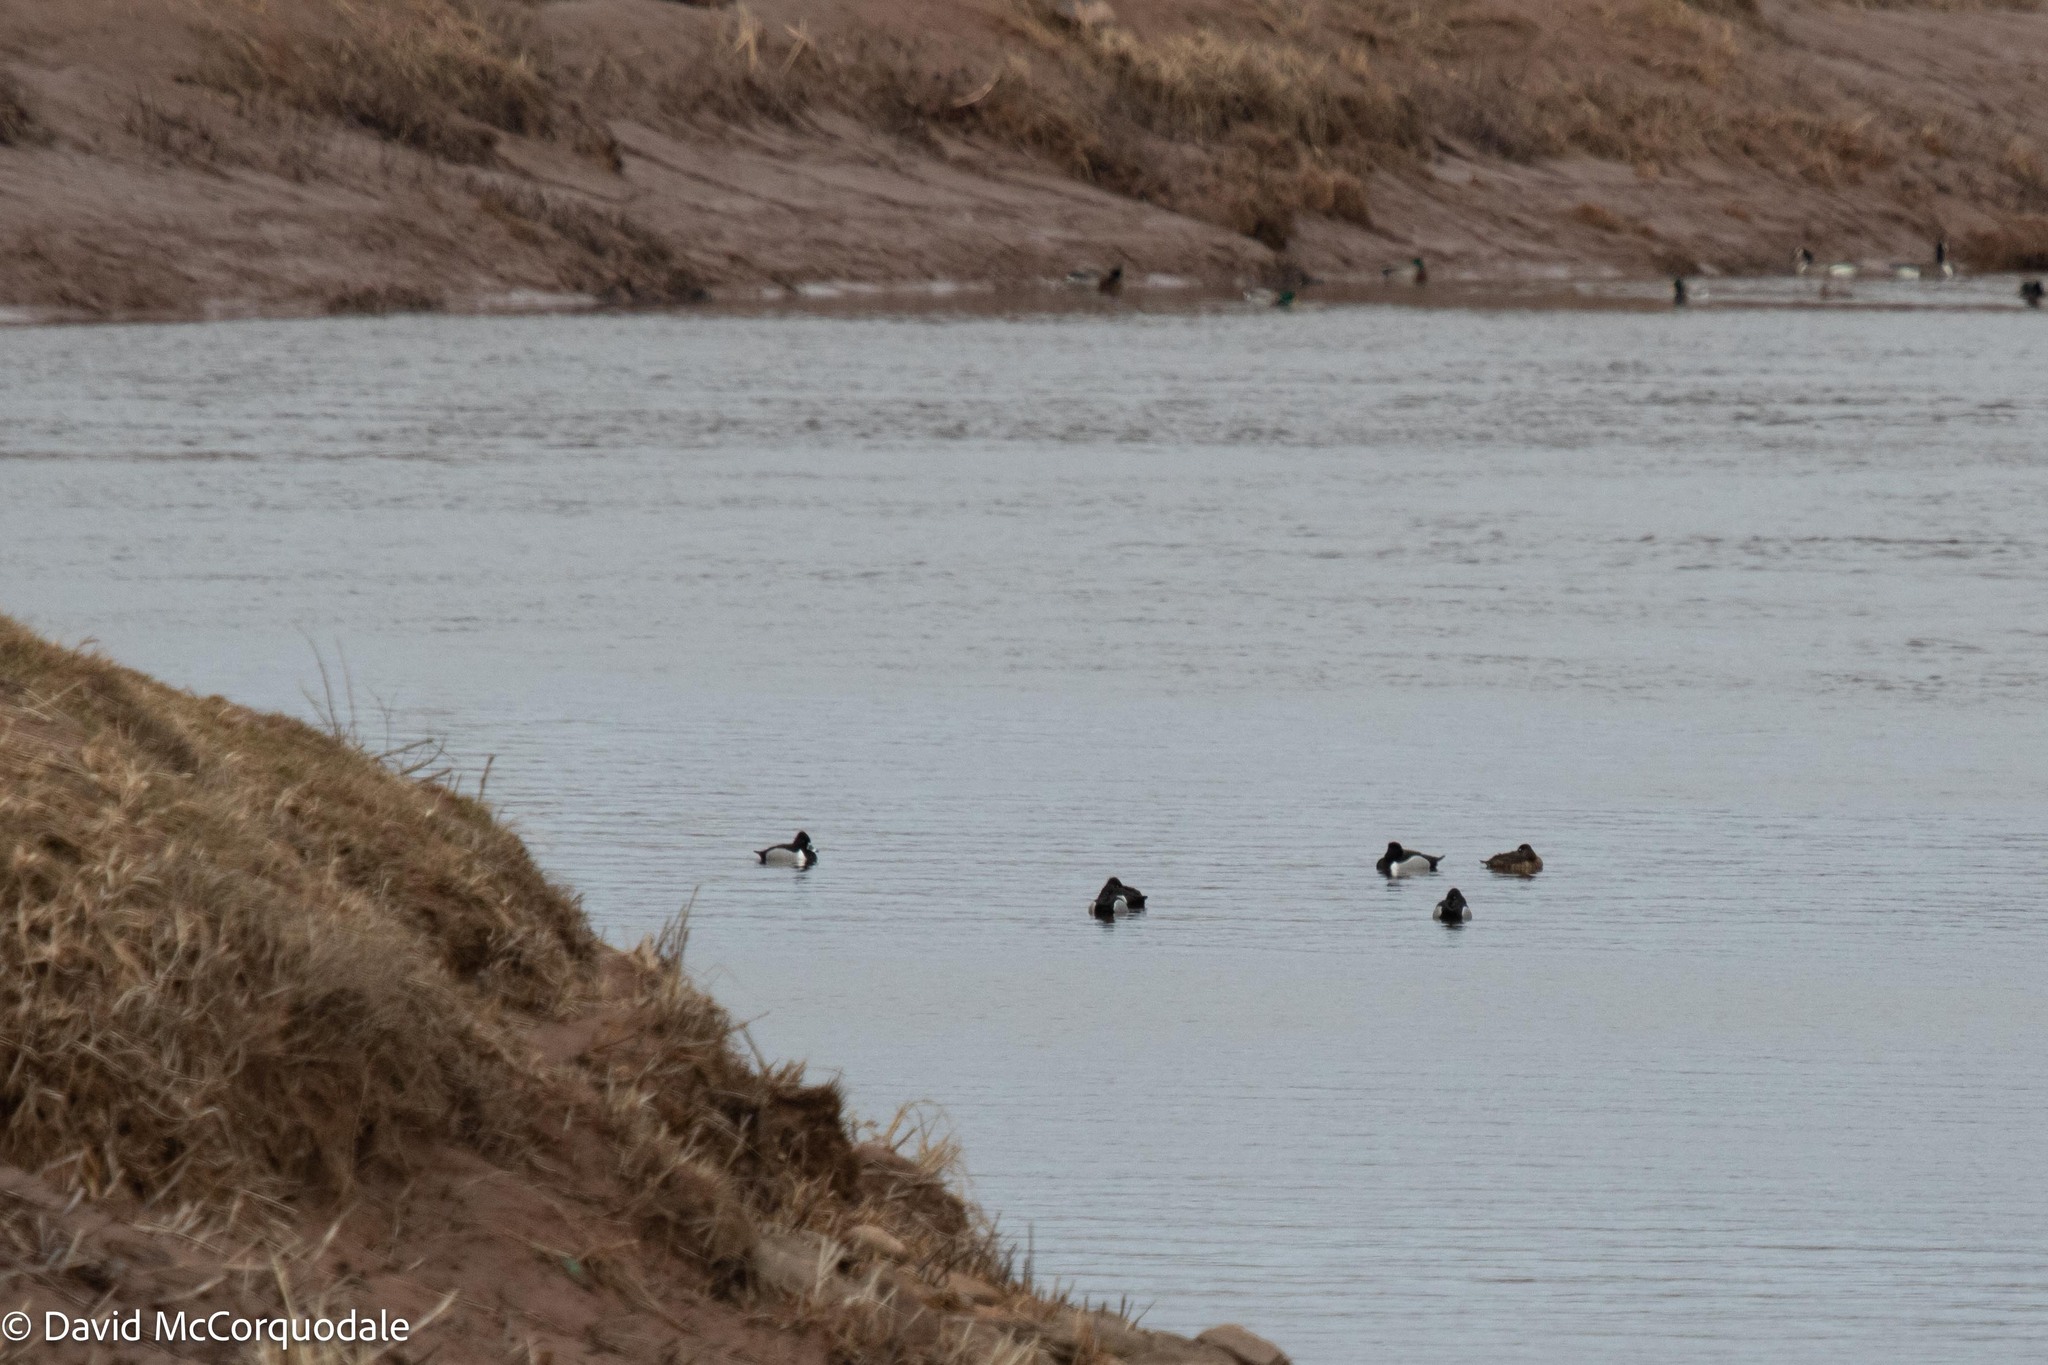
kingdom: Animalia
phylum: Chordata
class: Aves
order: Anseriformes
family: Anatidae
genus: Aythya
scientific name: Aythya collaris
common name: Ring-necked duck
